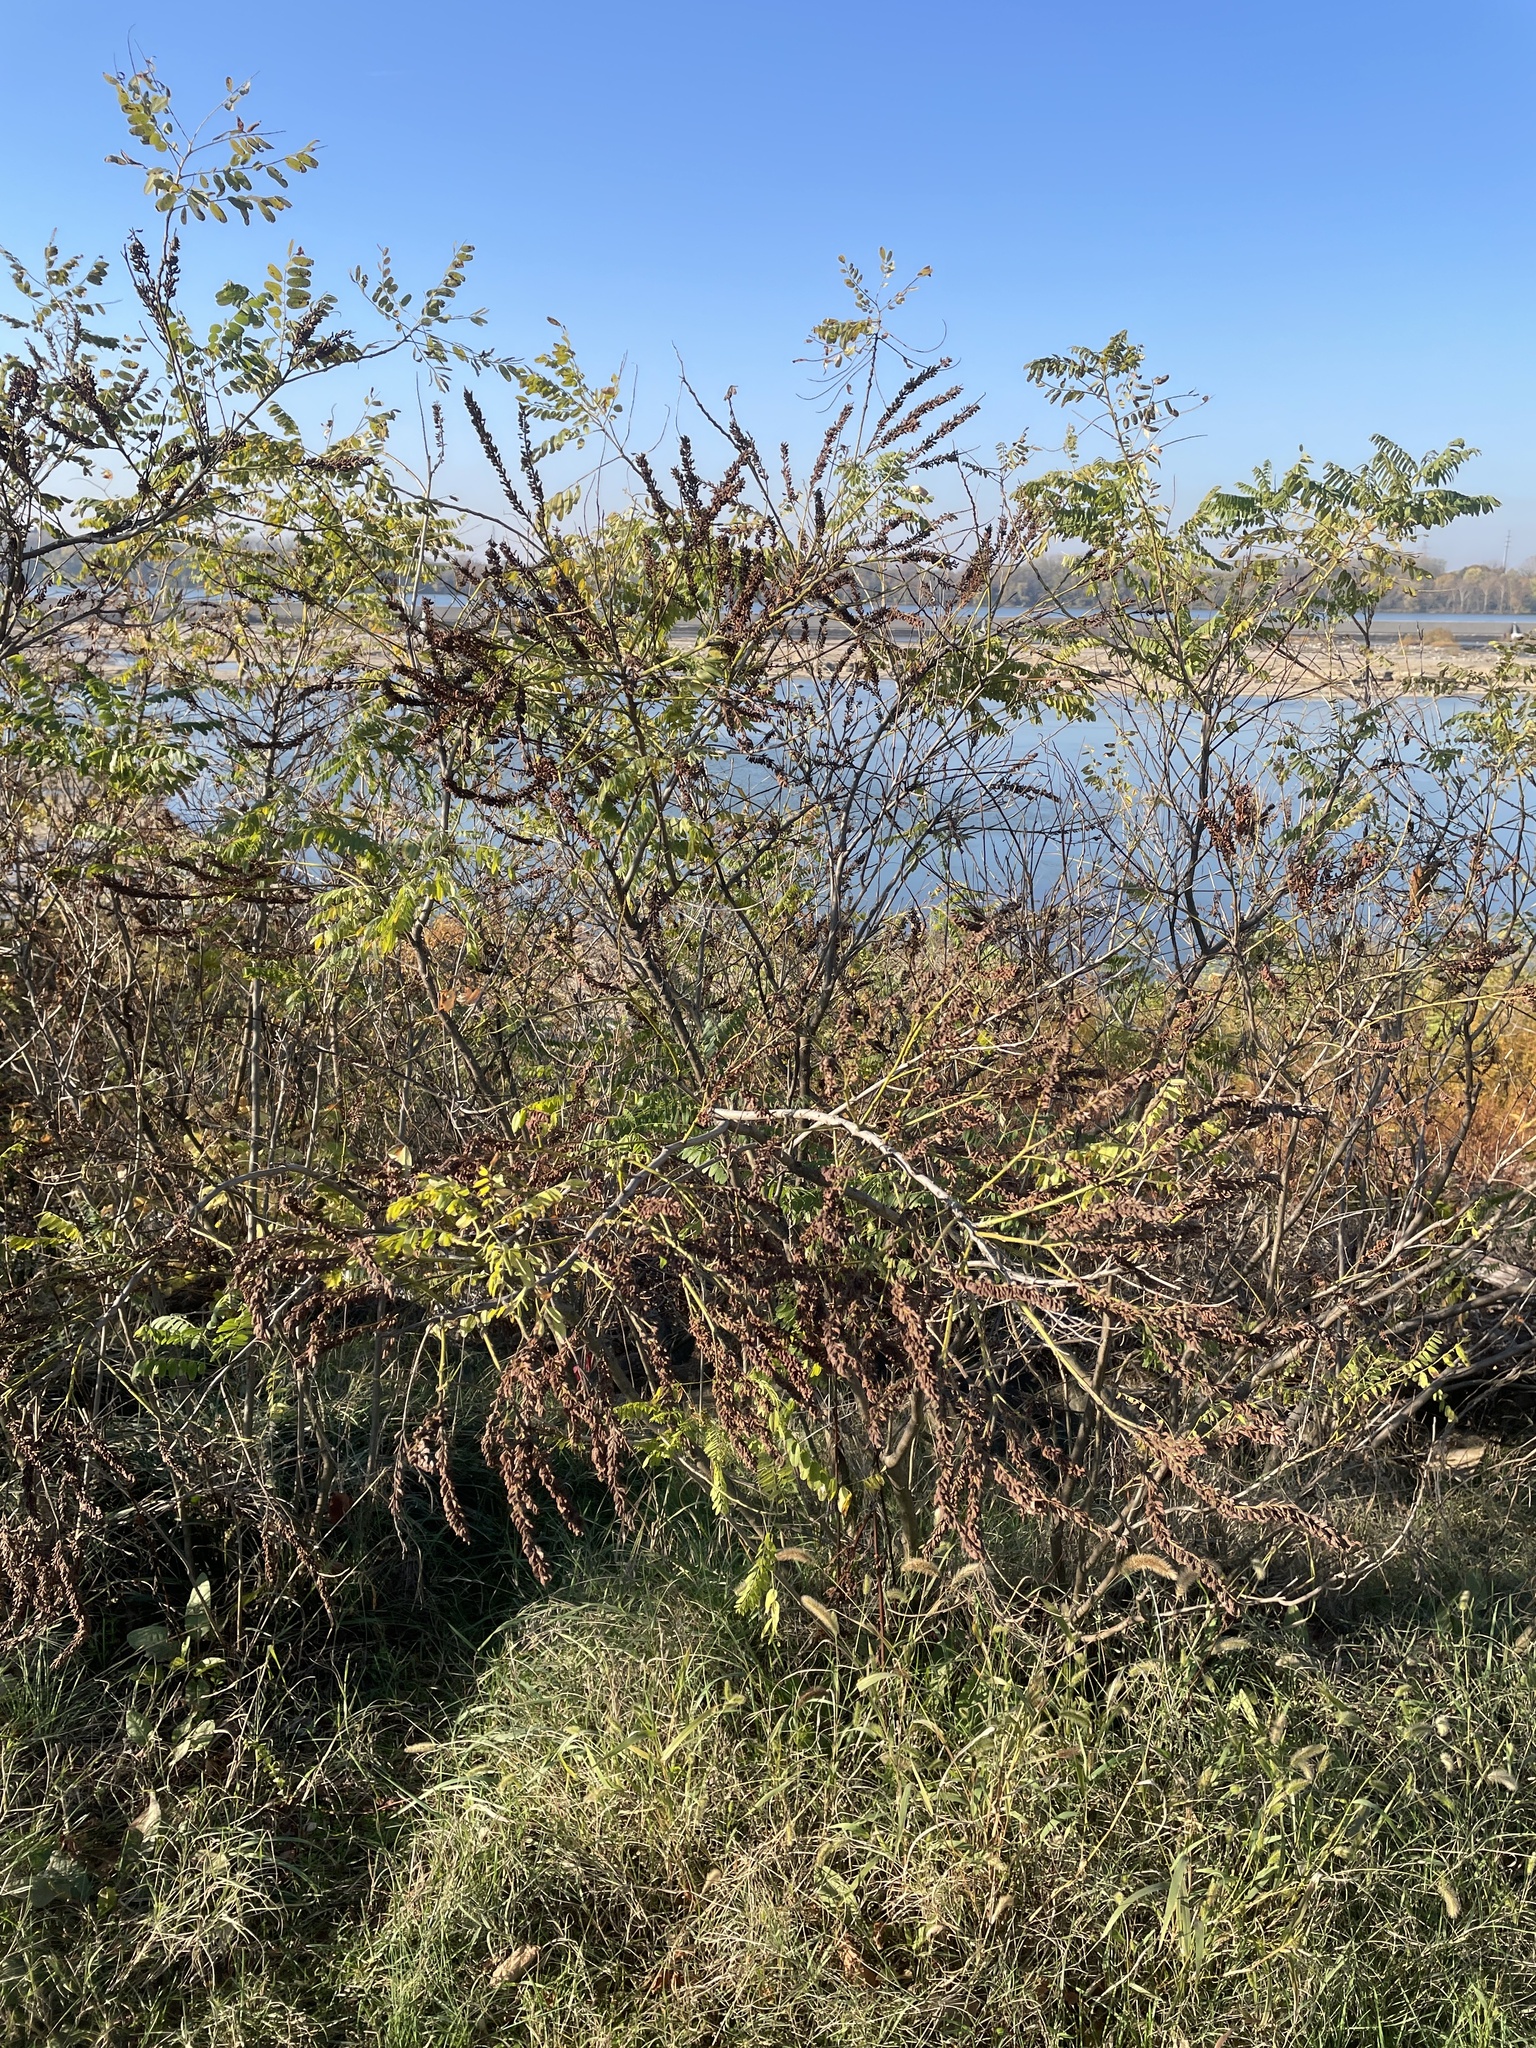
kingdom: Plantae
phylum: Tracheophyta
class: Magnoliopsida
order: Fabales
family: Fabaceae
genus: Amorpha
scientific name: Amorpha fruticosa
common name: False indigo
